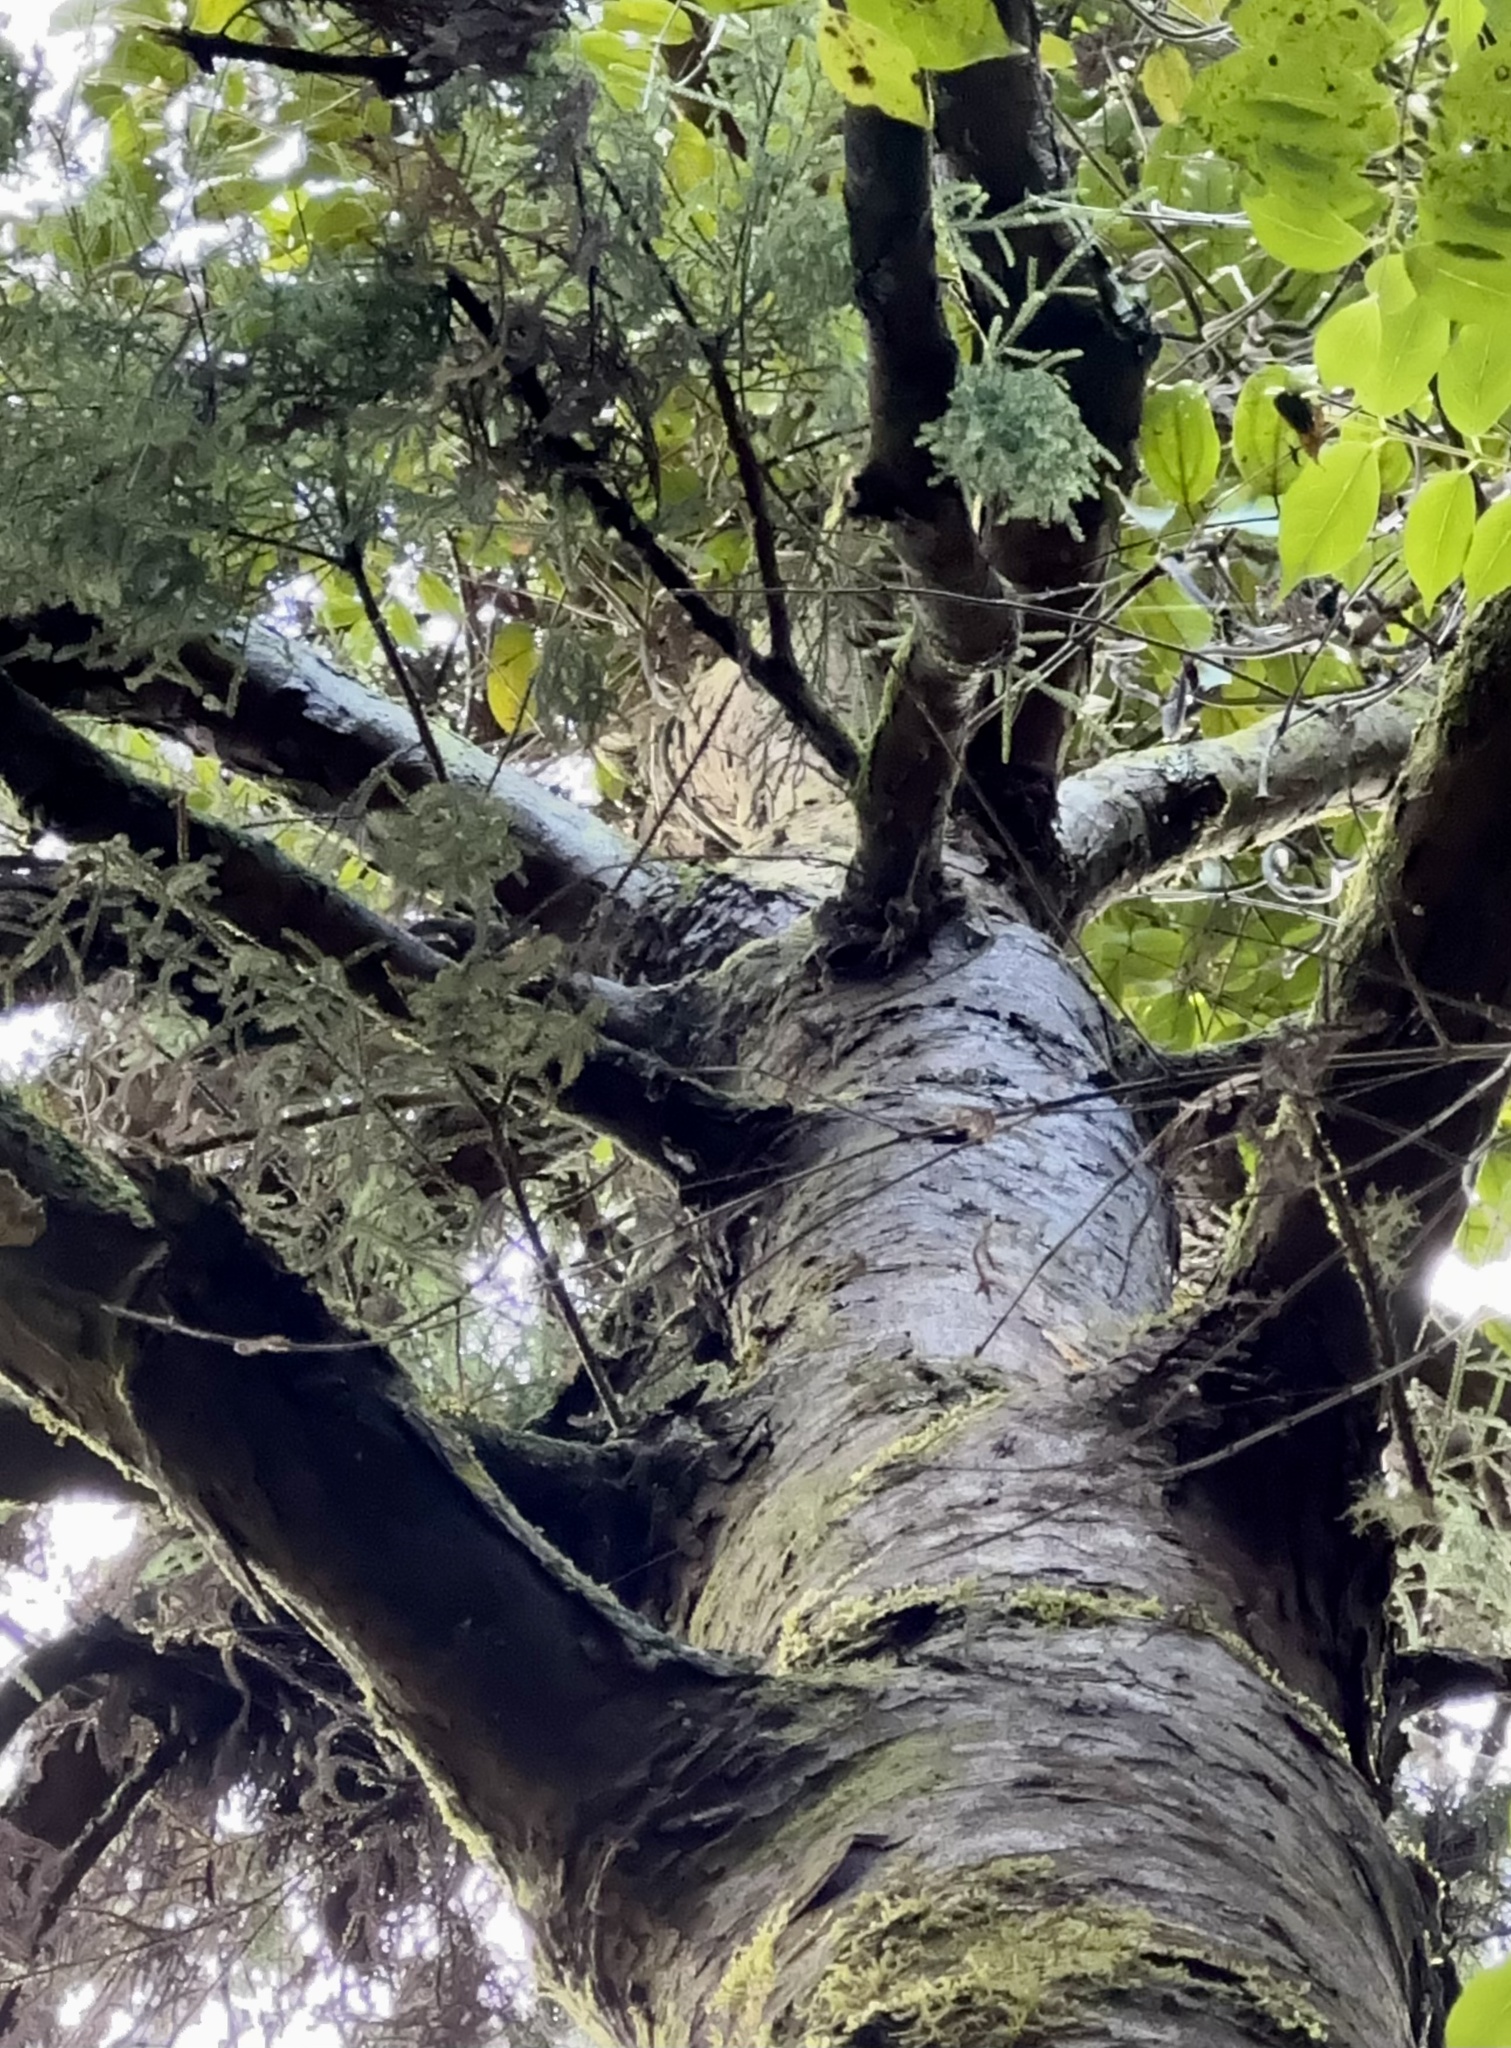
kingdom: Plantae
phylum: Tracheophyta
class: Pinopsida
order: Pinales
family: Podocarpaceae
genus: Dacrydium
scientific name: Dacrydium cupressinum
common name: Red pine
